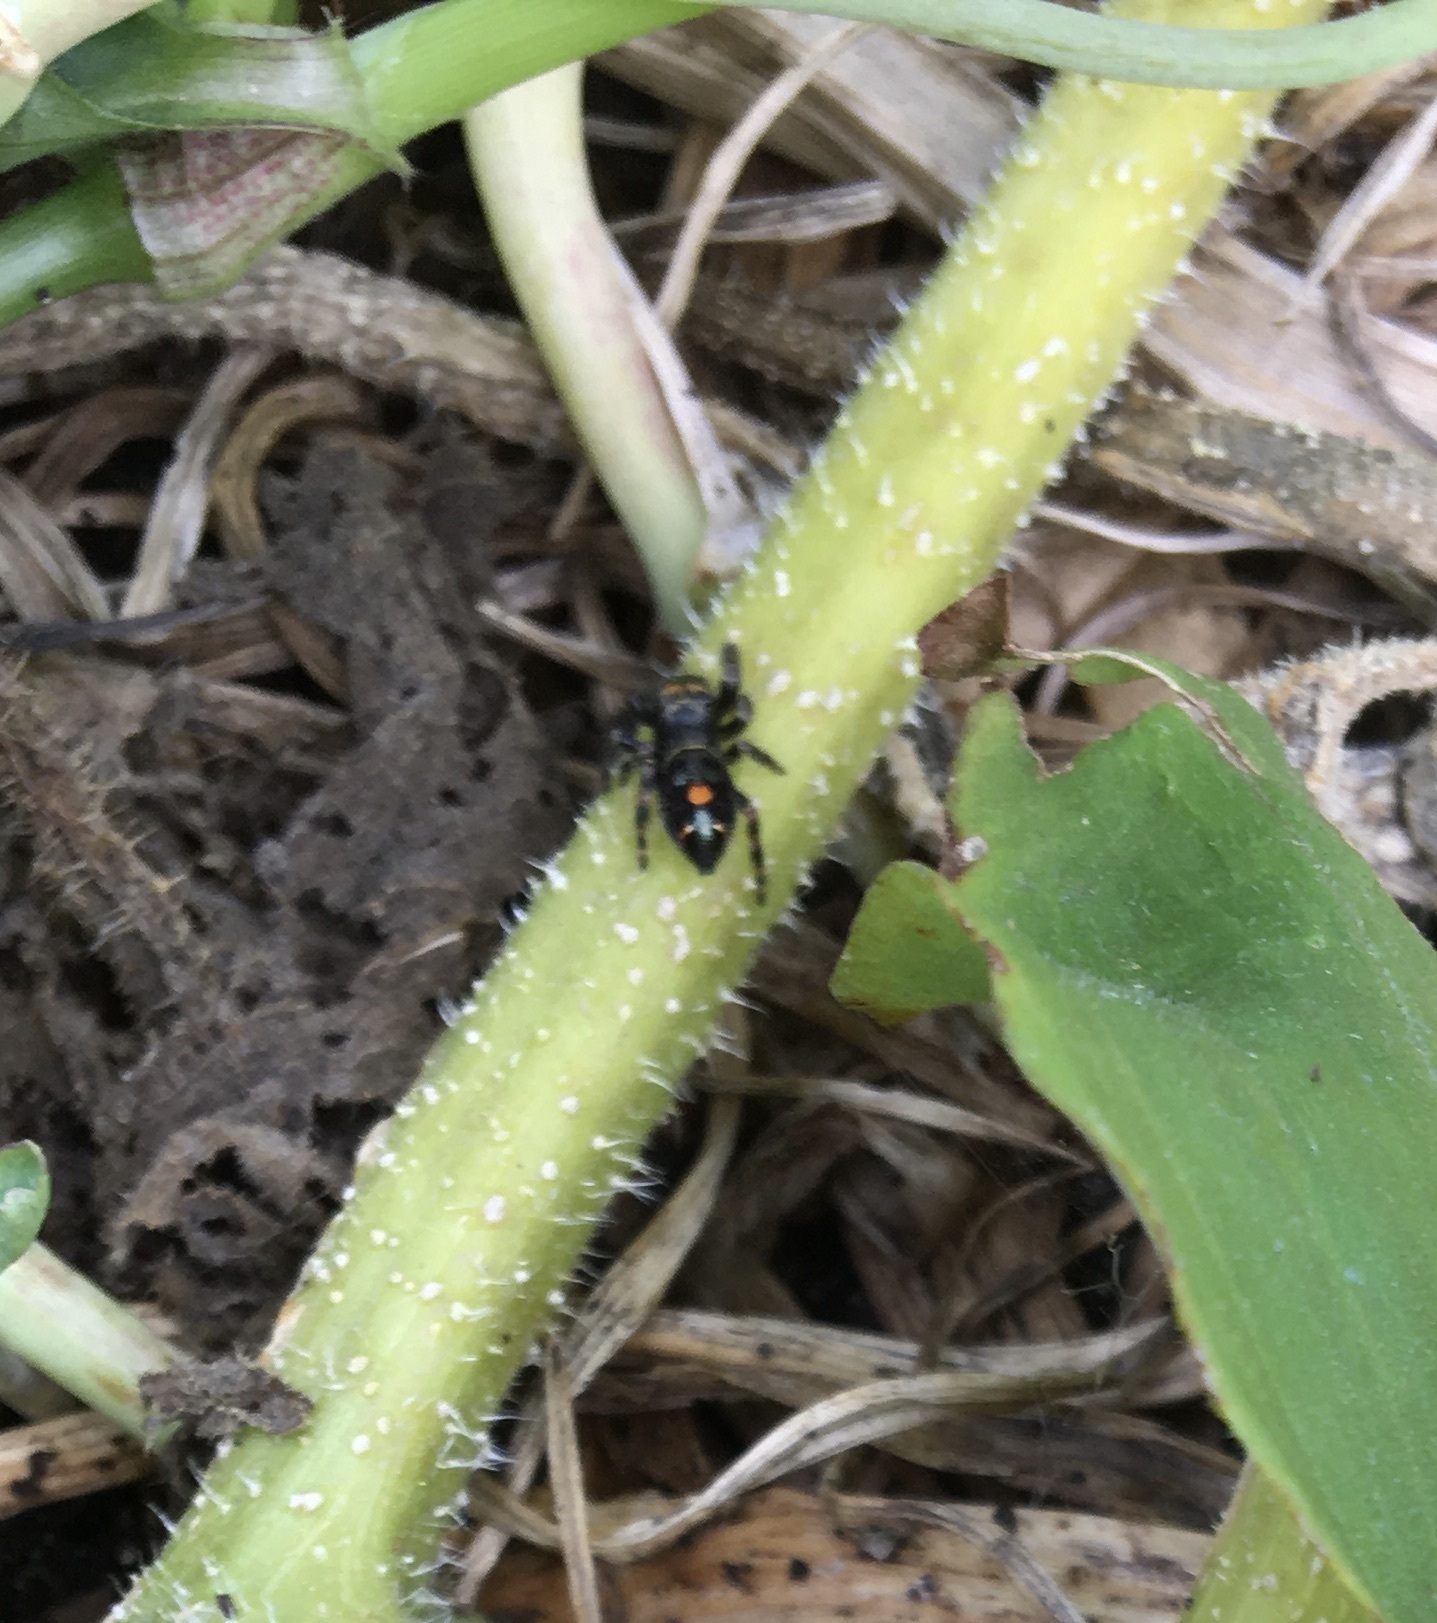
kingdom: Animalia
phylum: Arthropoda
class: Arachnida
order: Araneae
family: Salticidae
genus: Phidippus
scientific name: Phidippus audax
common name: Bold jumper
